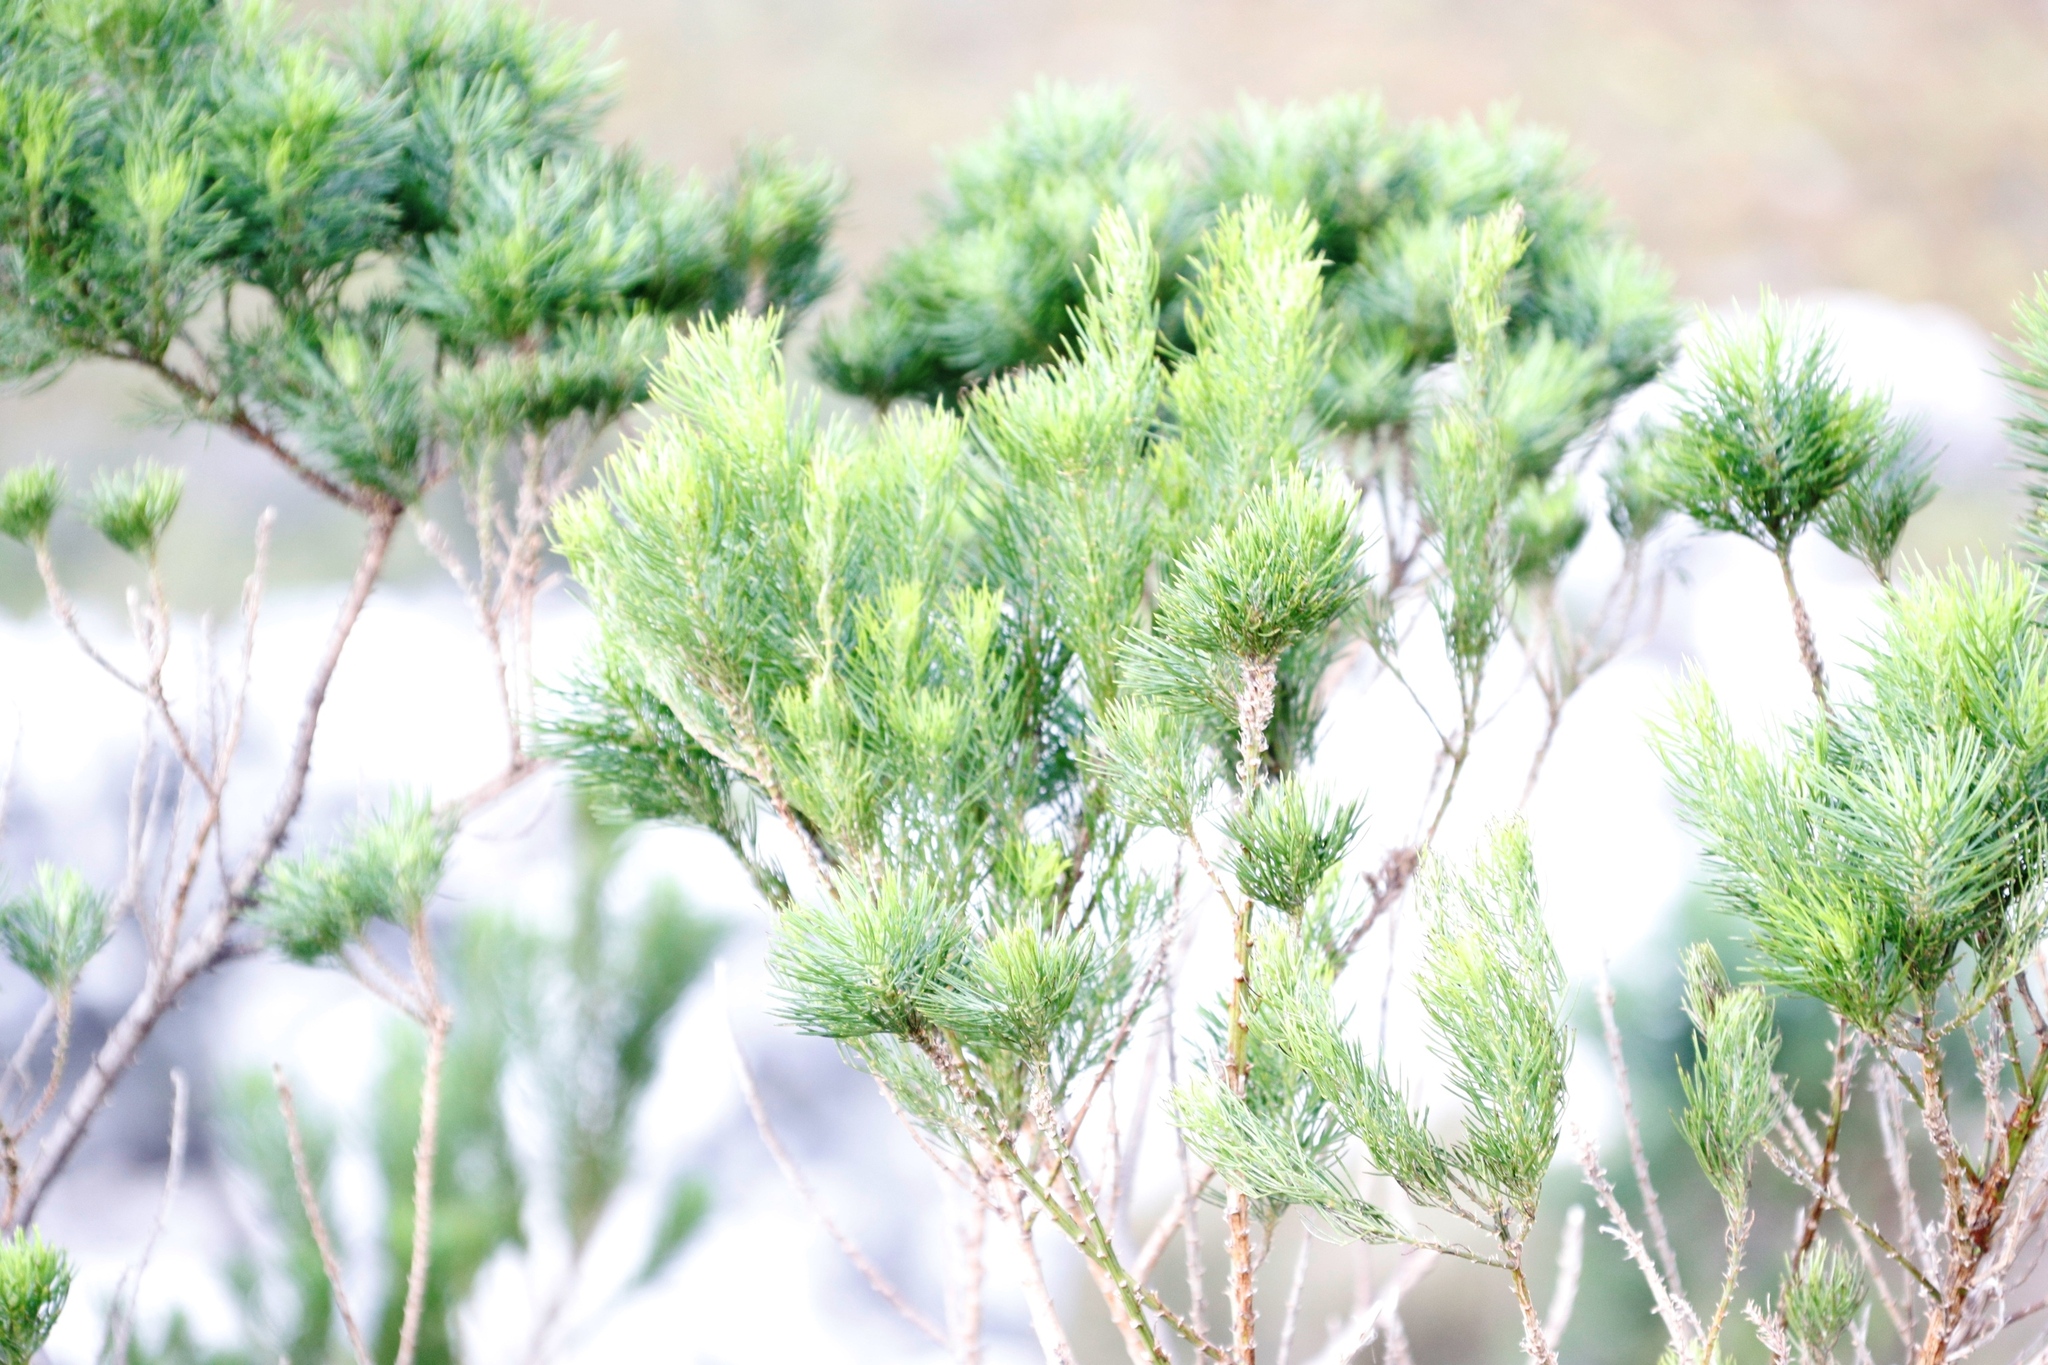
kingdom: Plantae
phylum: Tracheophyta
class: Magnoliopsida
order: Fabales
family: Fabaceae
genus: Psoralea
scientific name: Psoralea pinnata
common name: African scurfpea
